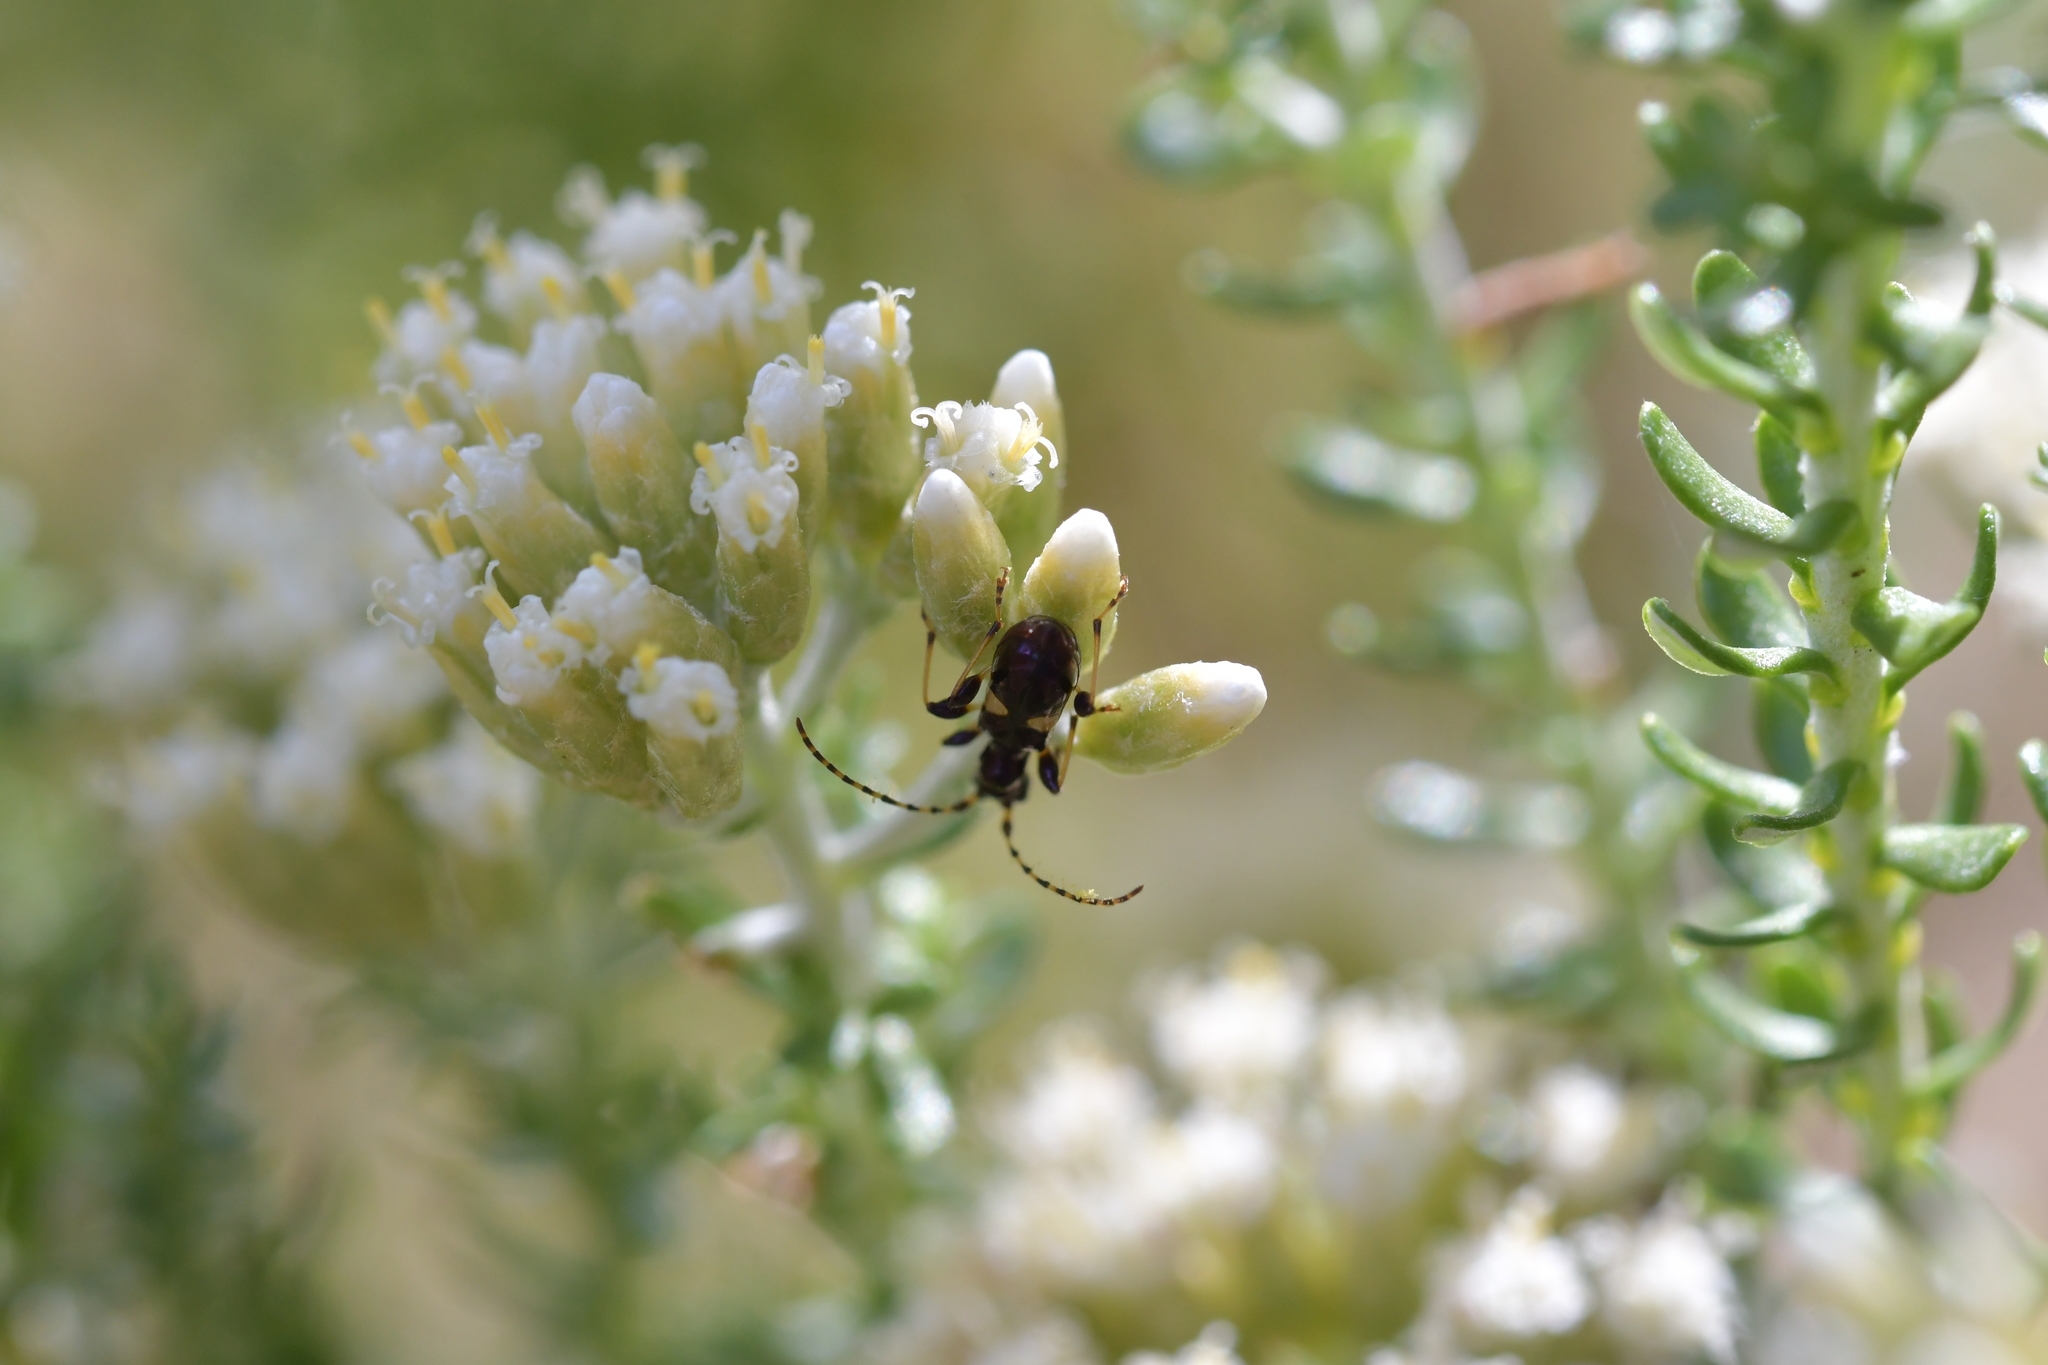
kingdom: Animalia
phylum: Arthropoda
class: Insecta
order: Coleoptera
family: Cerambycidae
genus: Zorion
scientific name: Zorion guttigerum
